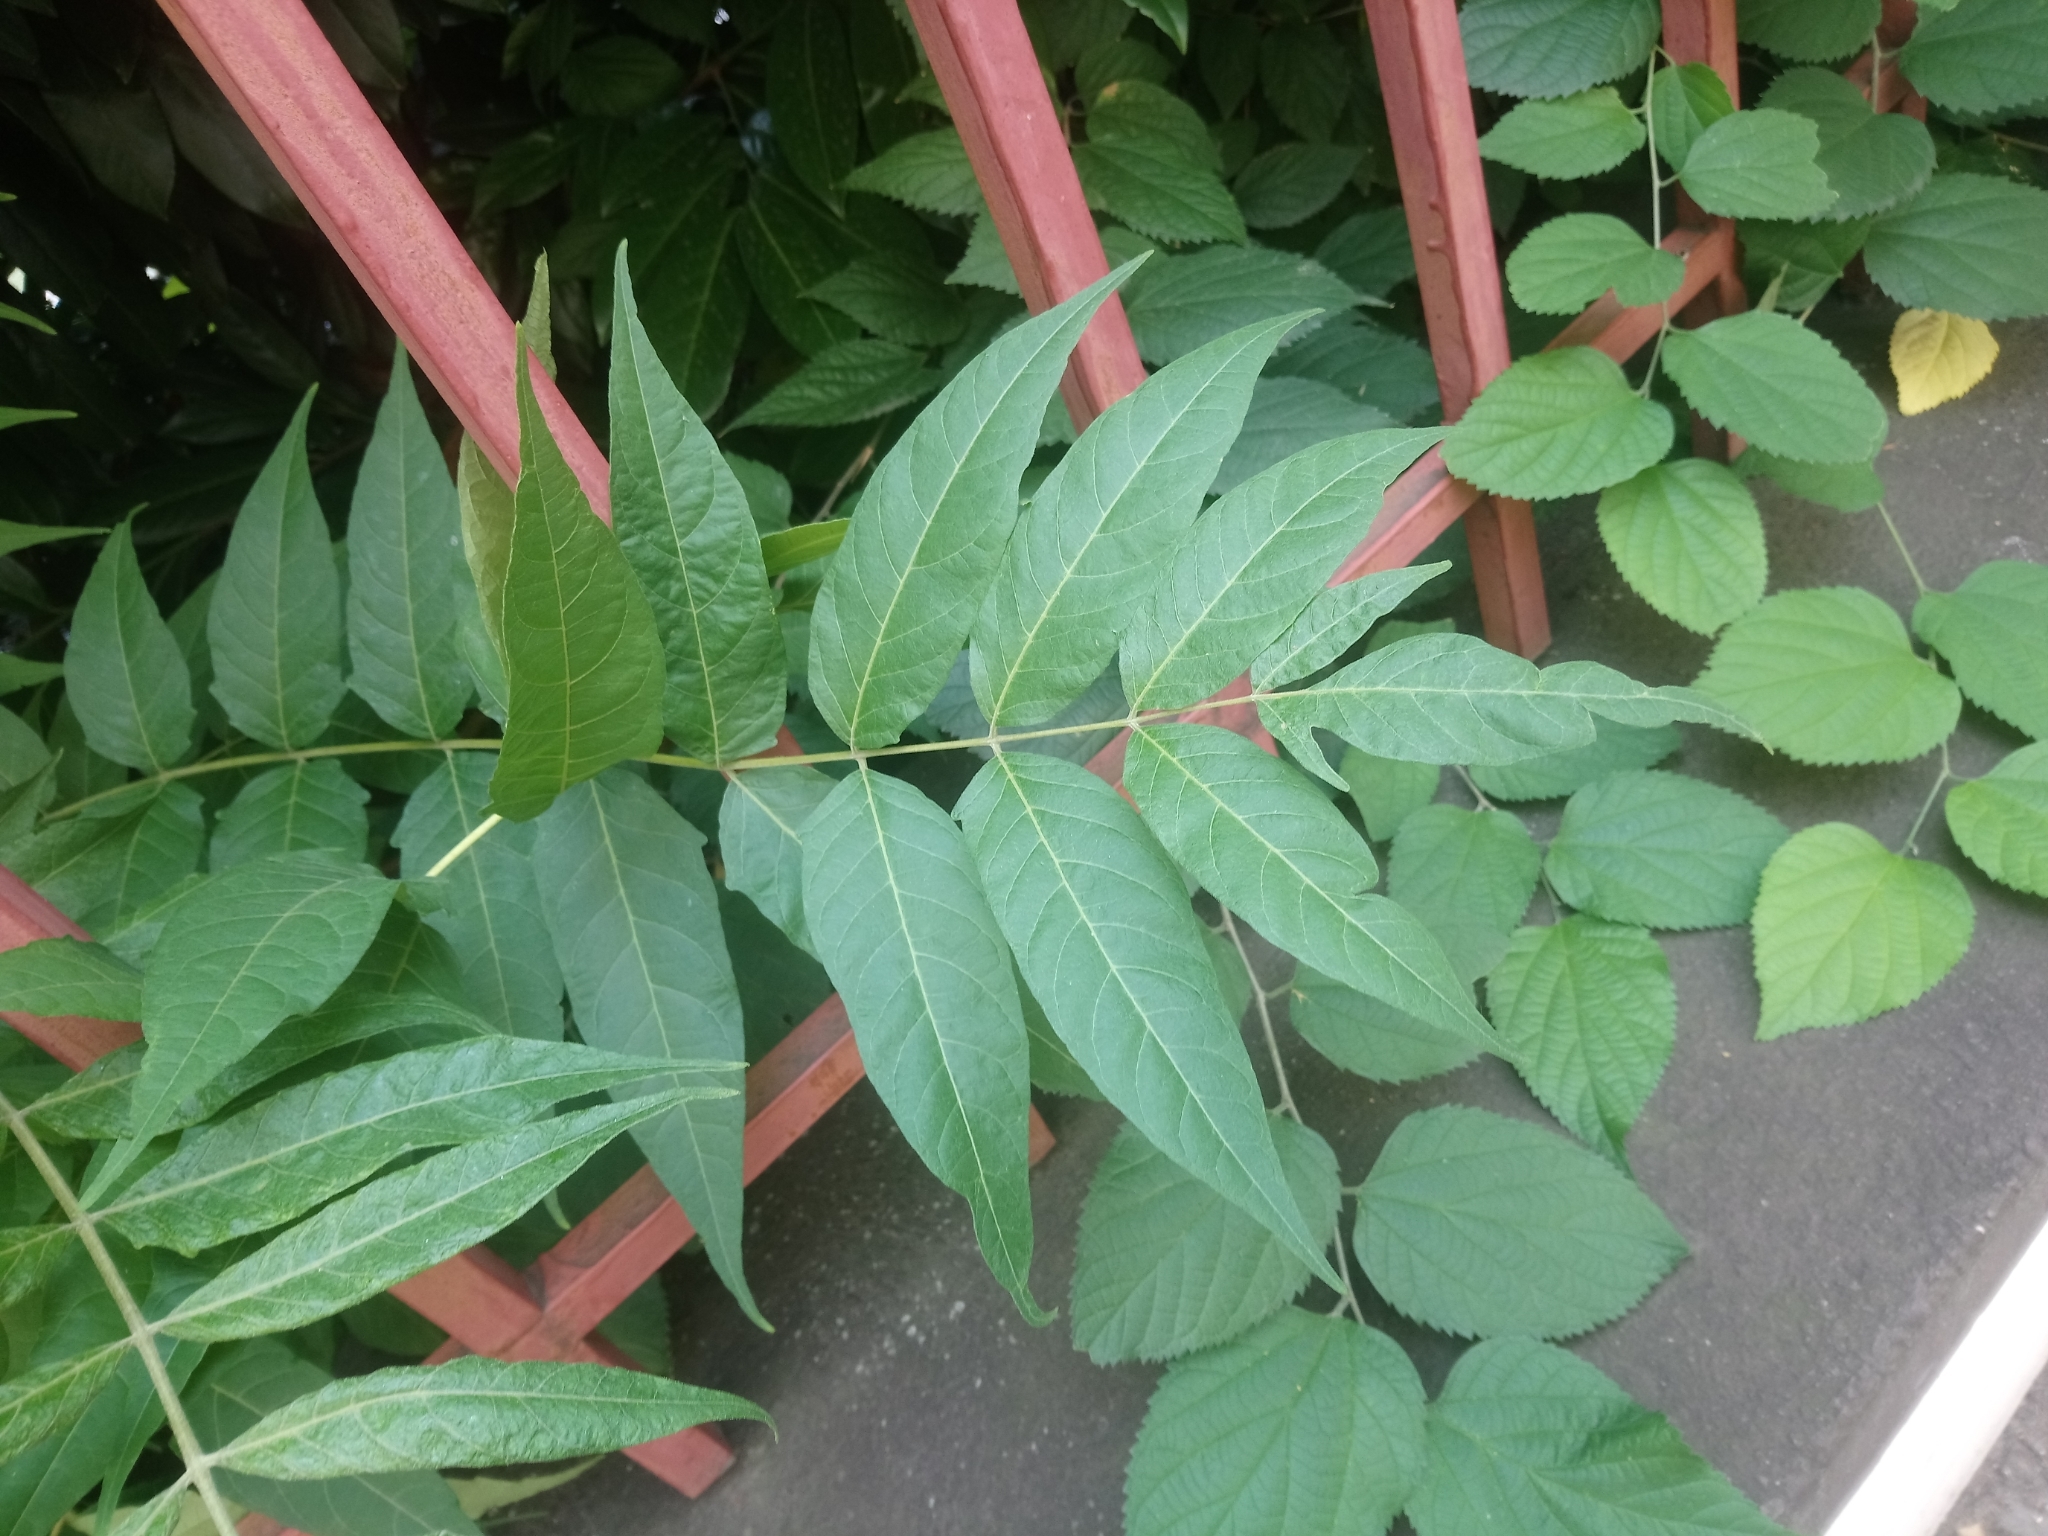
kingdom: Plantae
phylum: Tracheophyta
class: Magnoliopsida
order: Sapindales
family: Simaroubaceae
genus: Ailanthus
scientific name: Ailanthus altissima
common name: Tree-of-heaven
